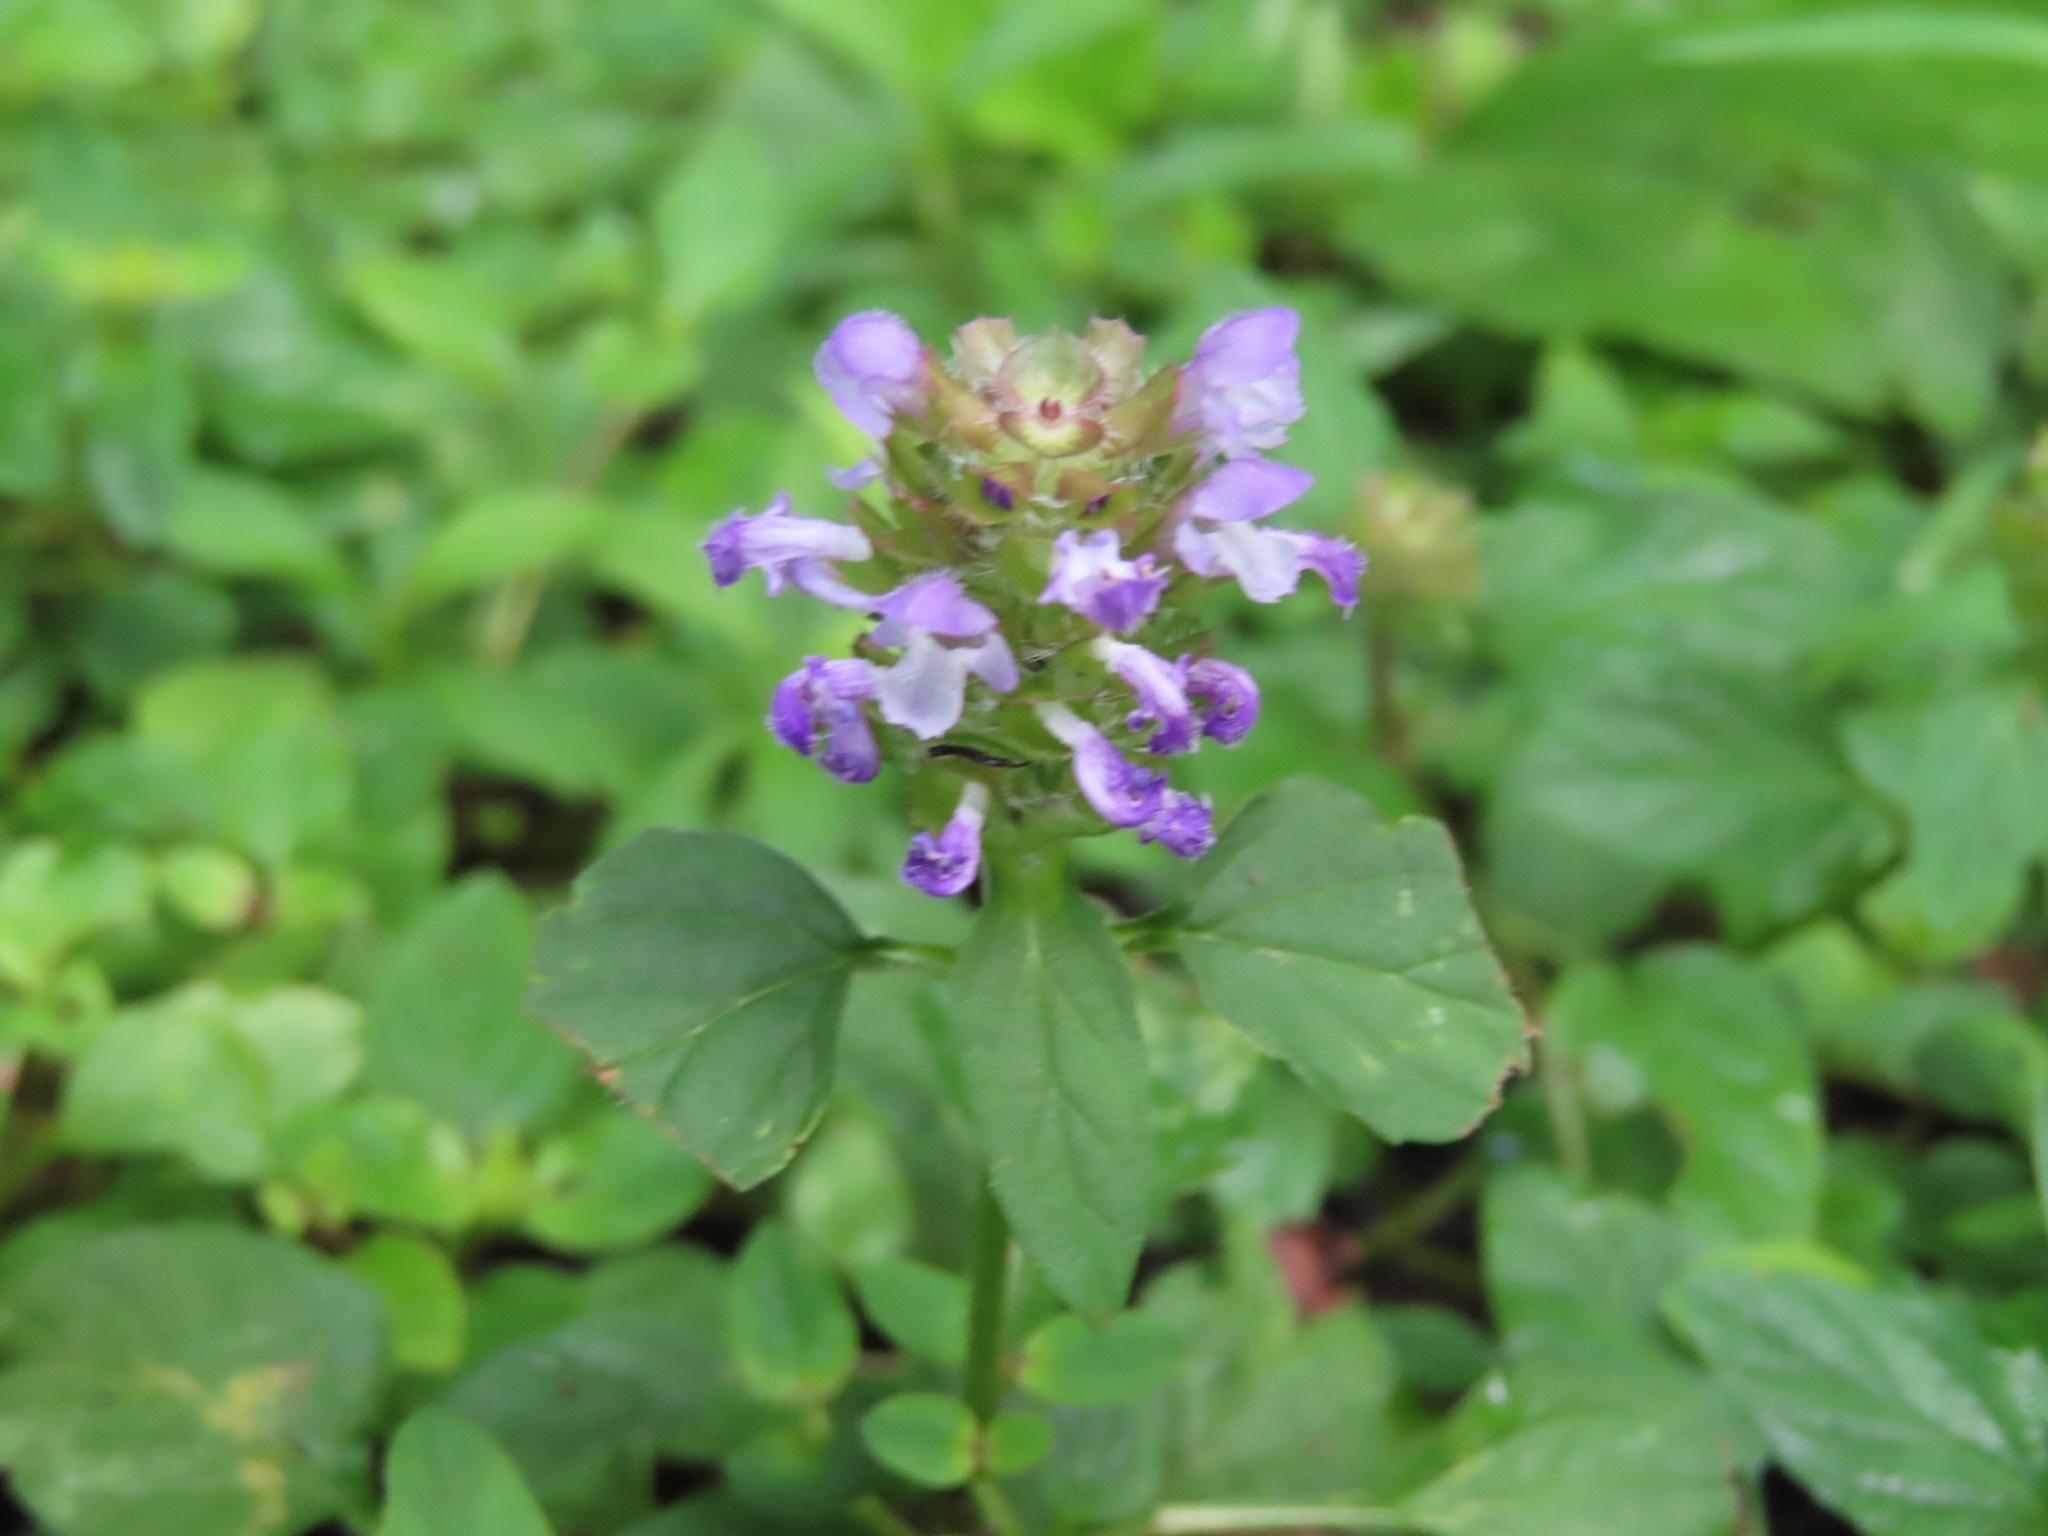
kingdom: Plantae
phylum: Tracheophyta
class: Magnoliopsida
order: Lamiales
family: Lamiaceae
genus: Prunella
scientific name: Prunella vulgaris
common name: Heal-all
